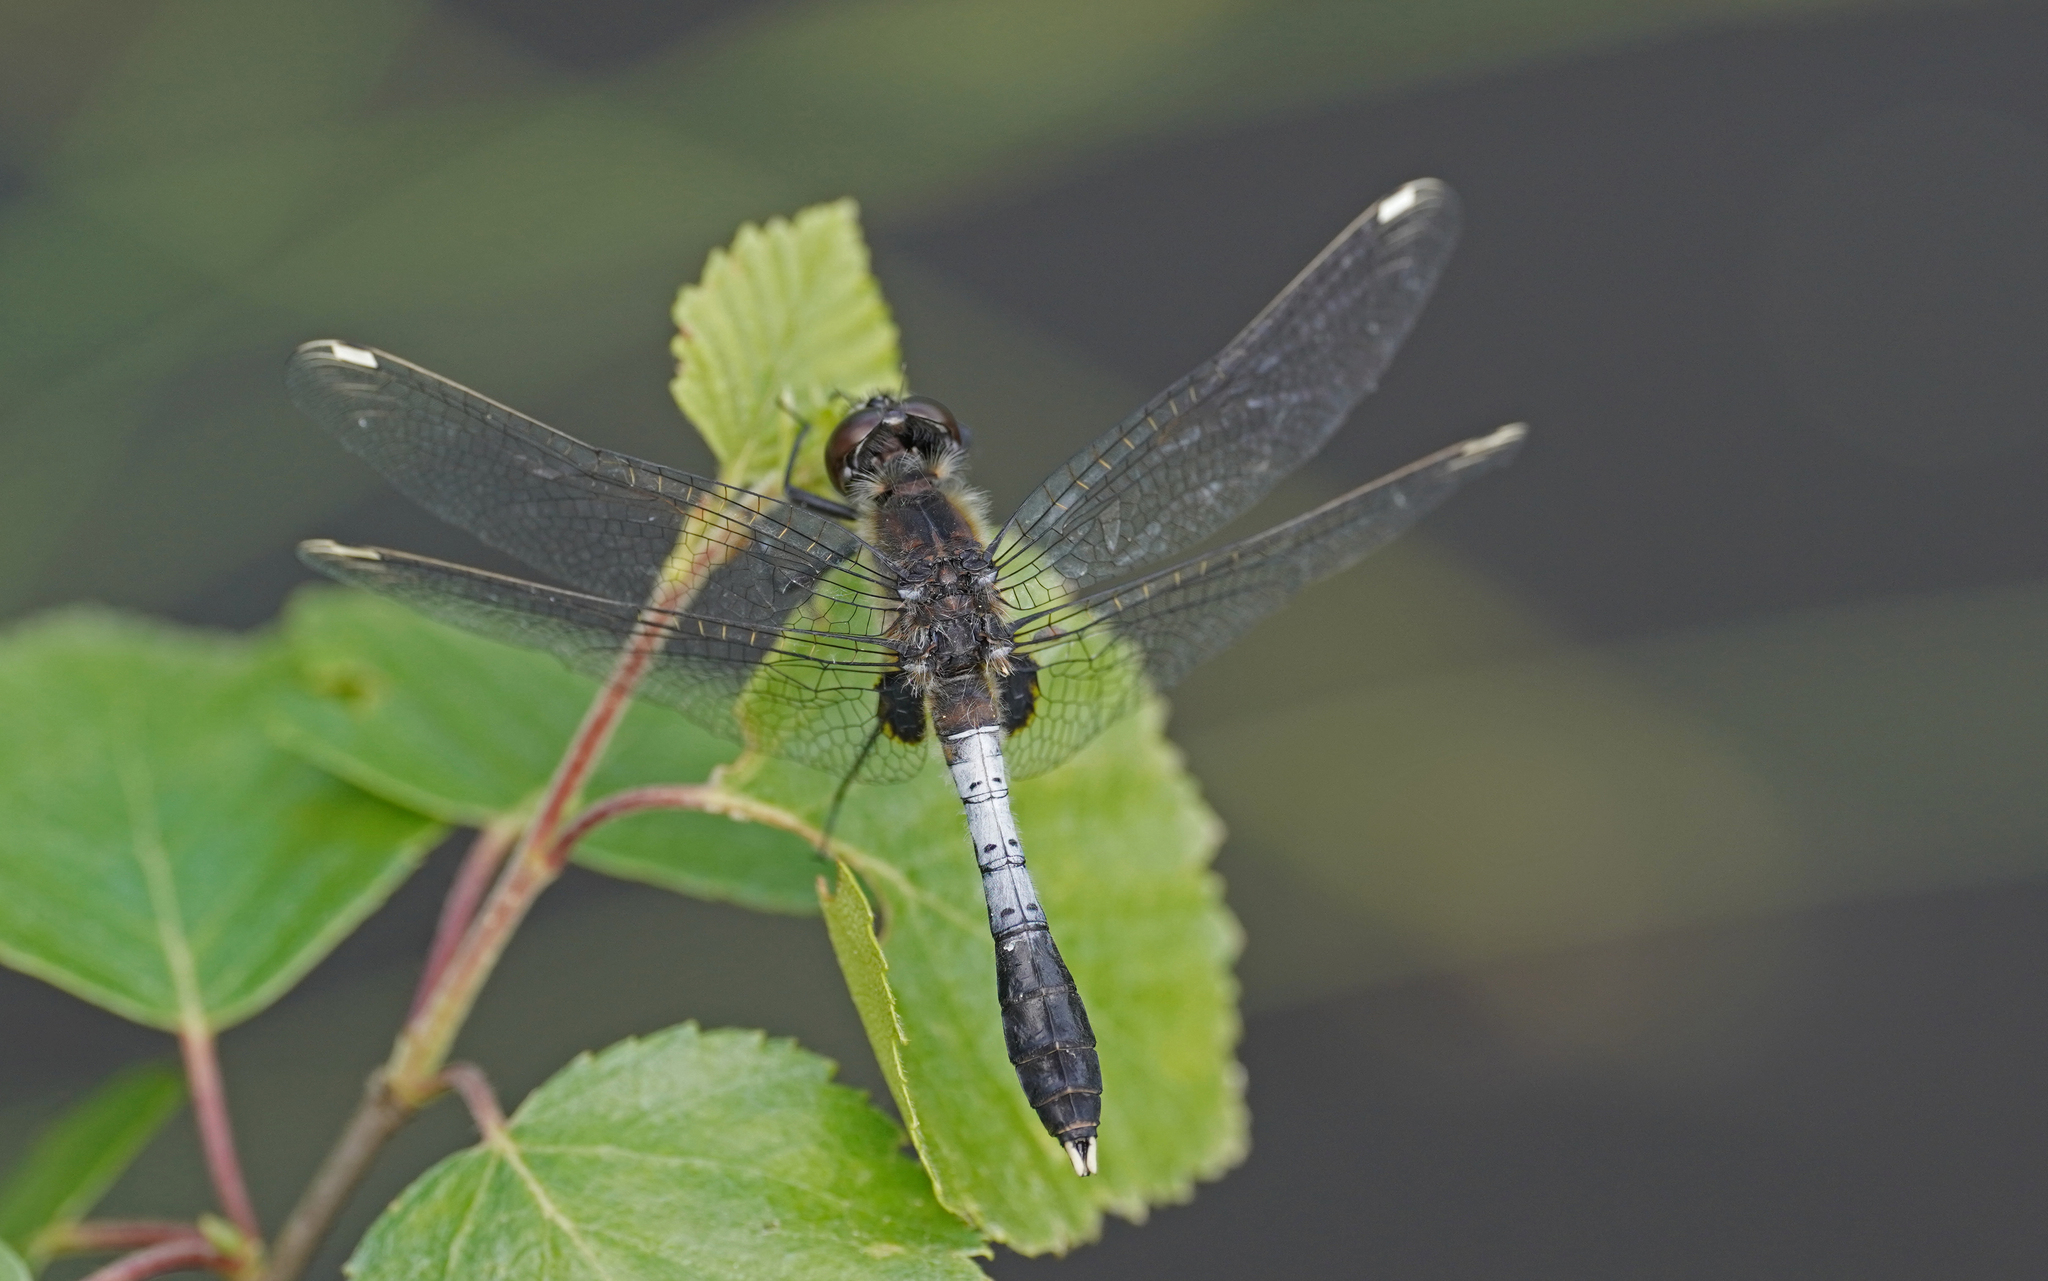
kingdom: Animalia
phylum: Arthropoda
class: Insecta
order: Odonata
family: Libellulidae
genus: Leucorrhinia
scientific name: Leucorrhinia caudalis
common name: Lilypad whiteface
